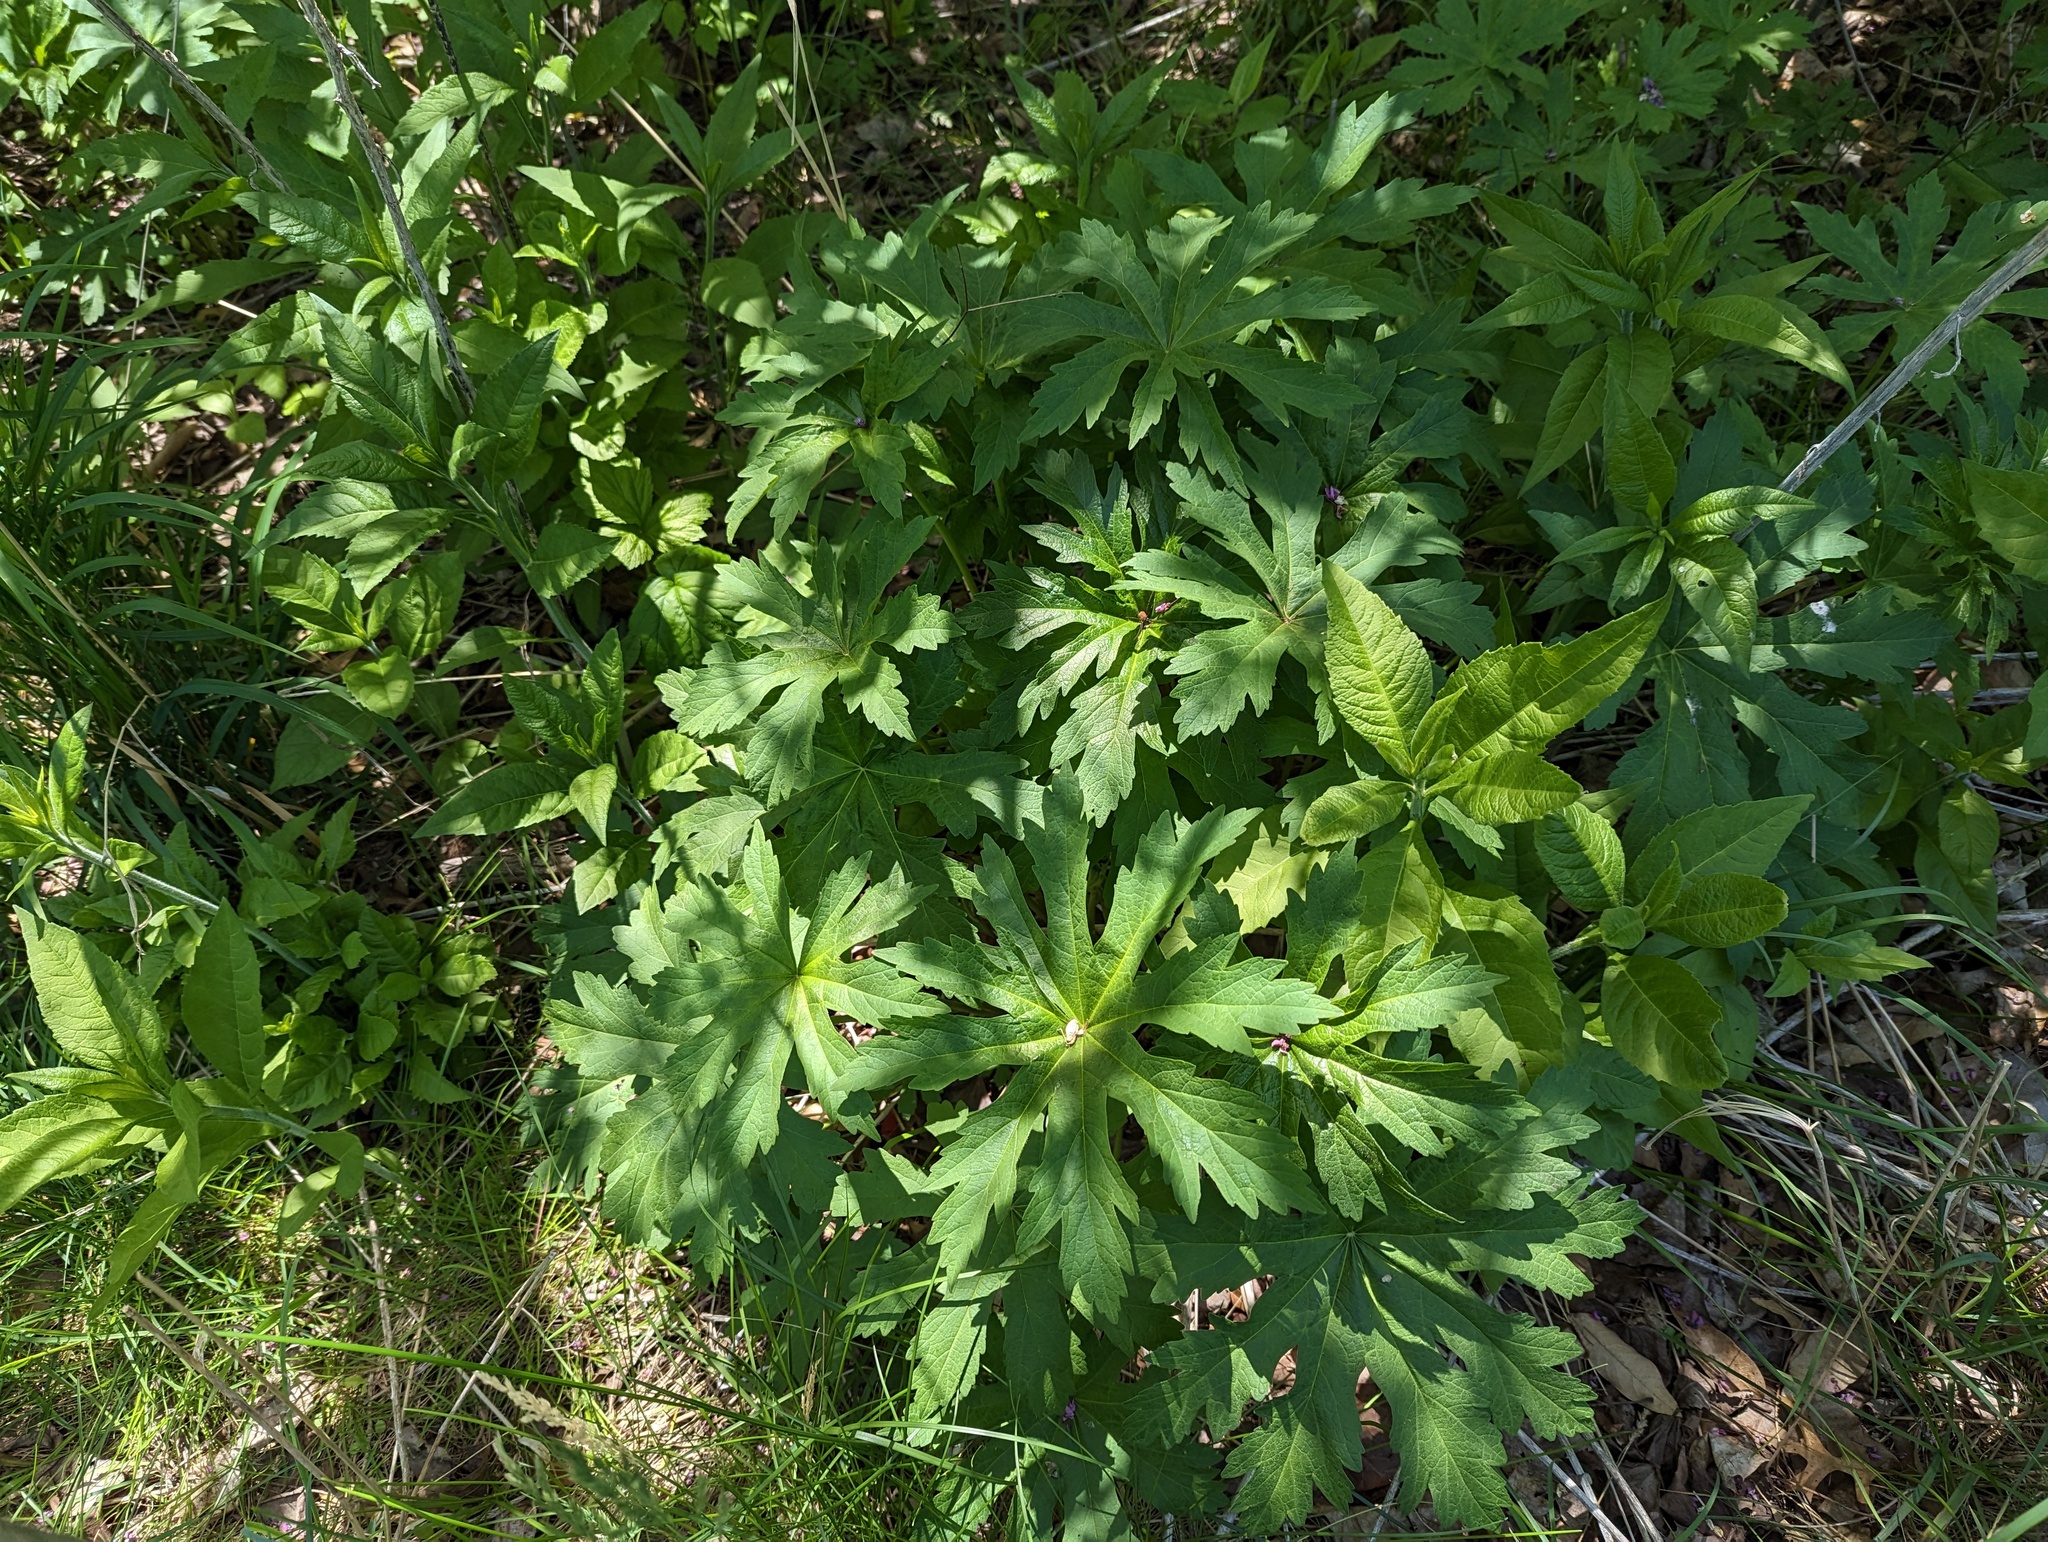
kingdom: Plantae
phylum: Tracheophyta
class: Magnoliopsida
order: Malvales
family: Malvaceae
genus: Napaea
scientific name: Napaea dioica
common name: Glade-mallow
